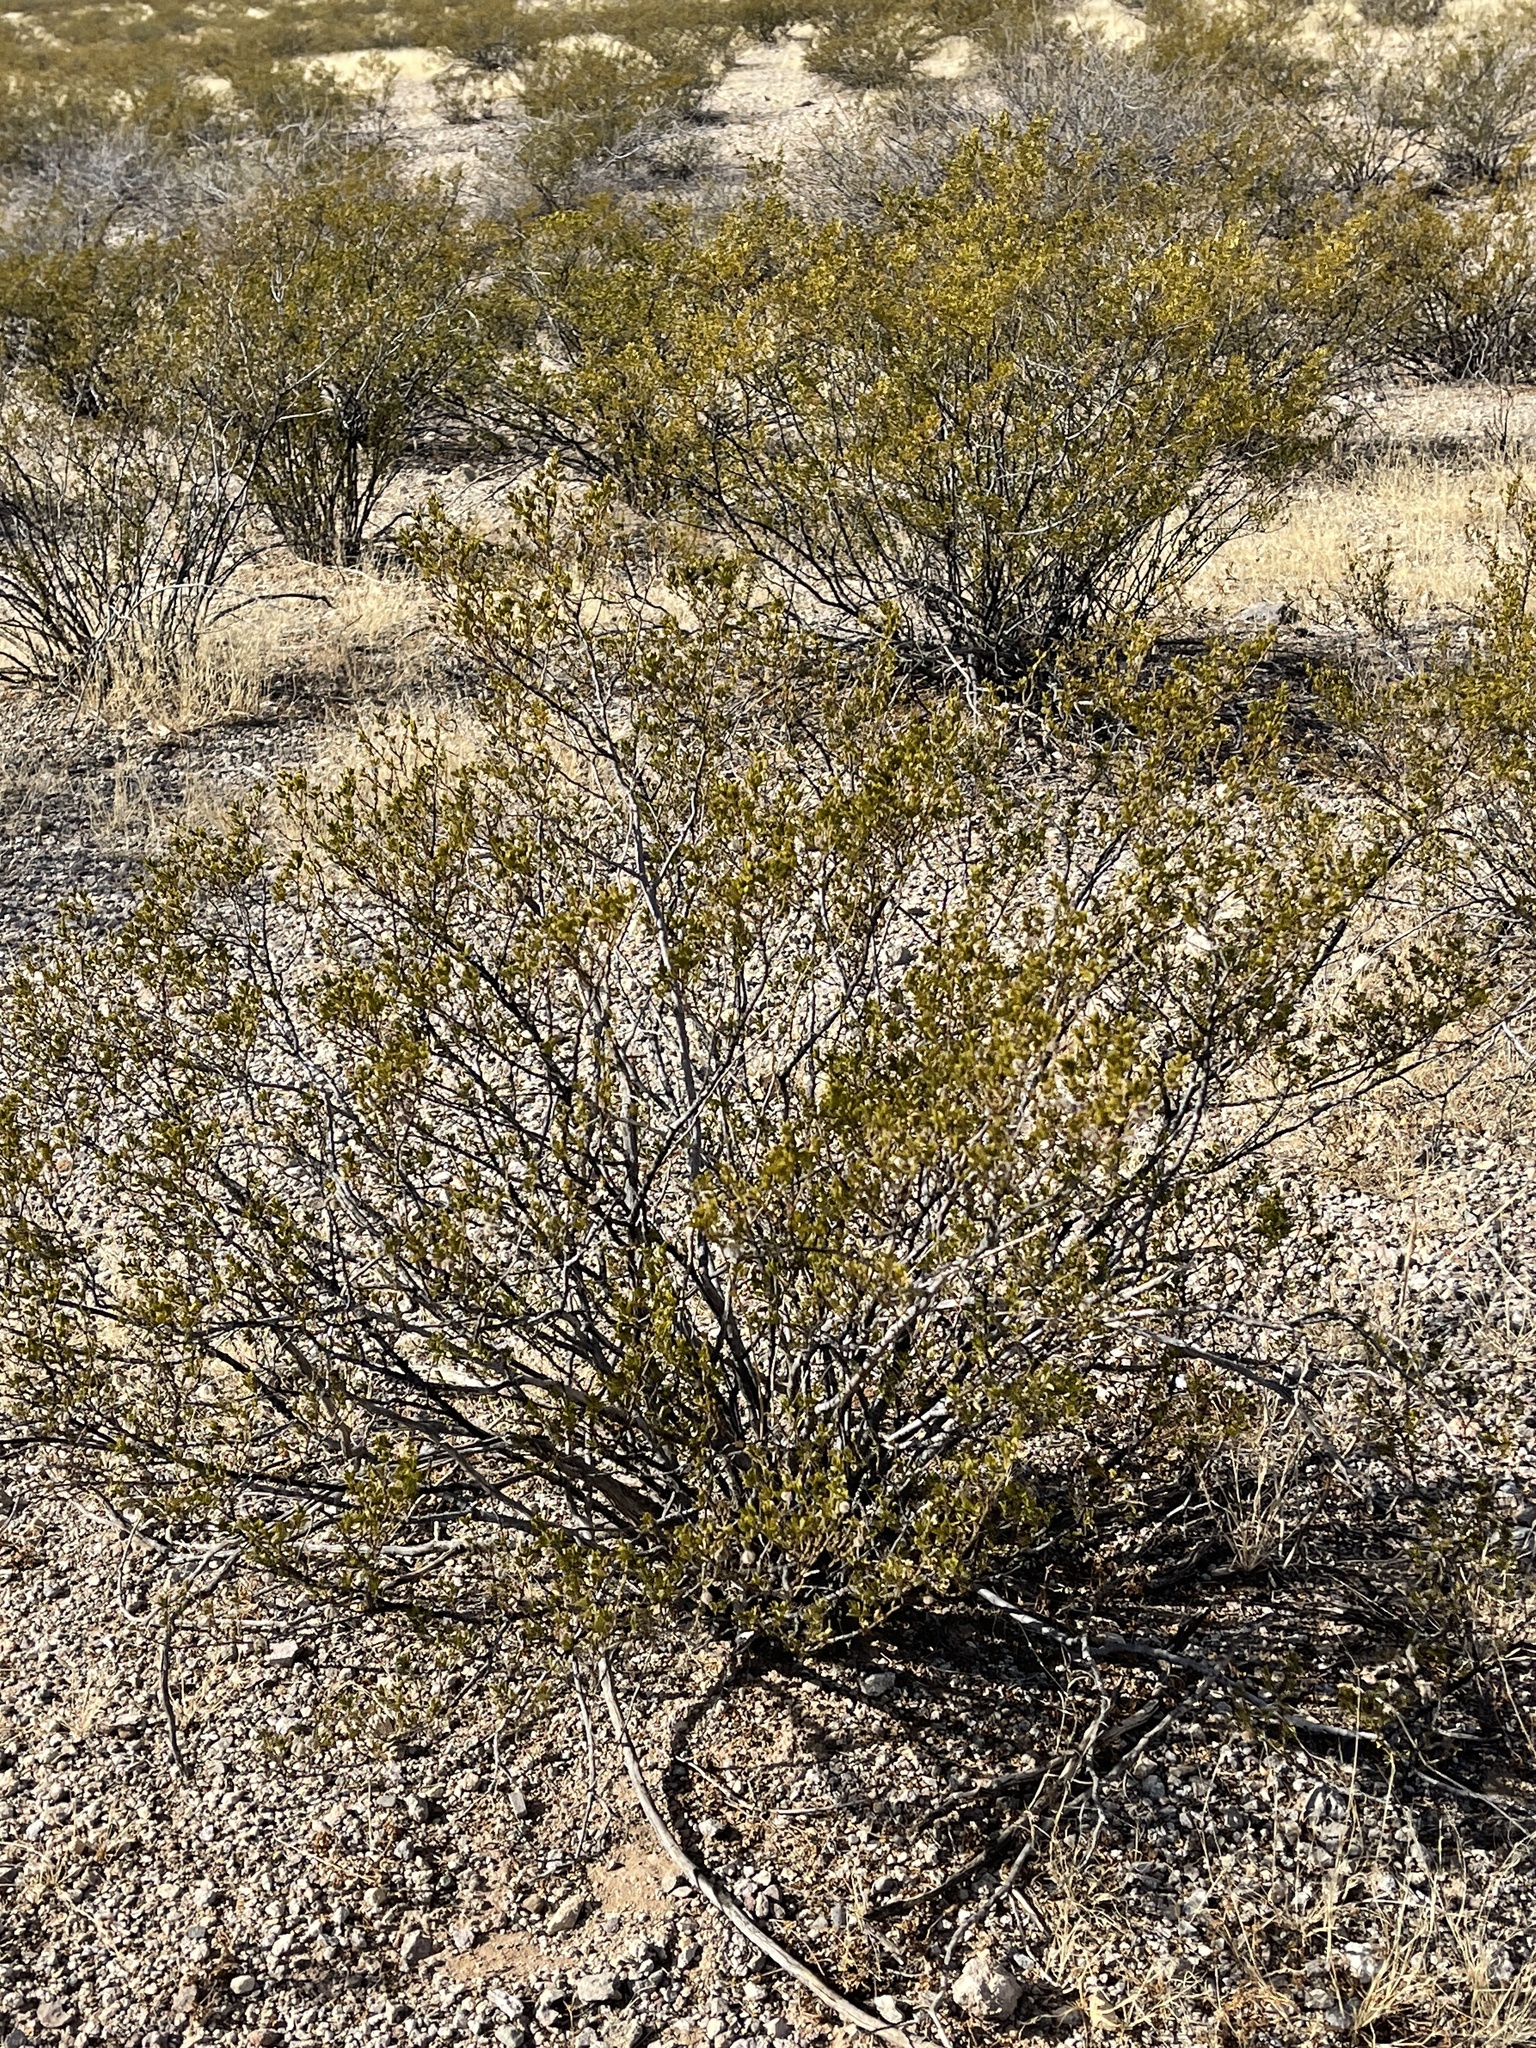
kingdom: Plantae
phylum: Tracheophyta
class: Magnoliopsida
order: Zygophyllales
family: Zygophyllaceae
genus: Larrea
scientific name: Larrea tridentata
